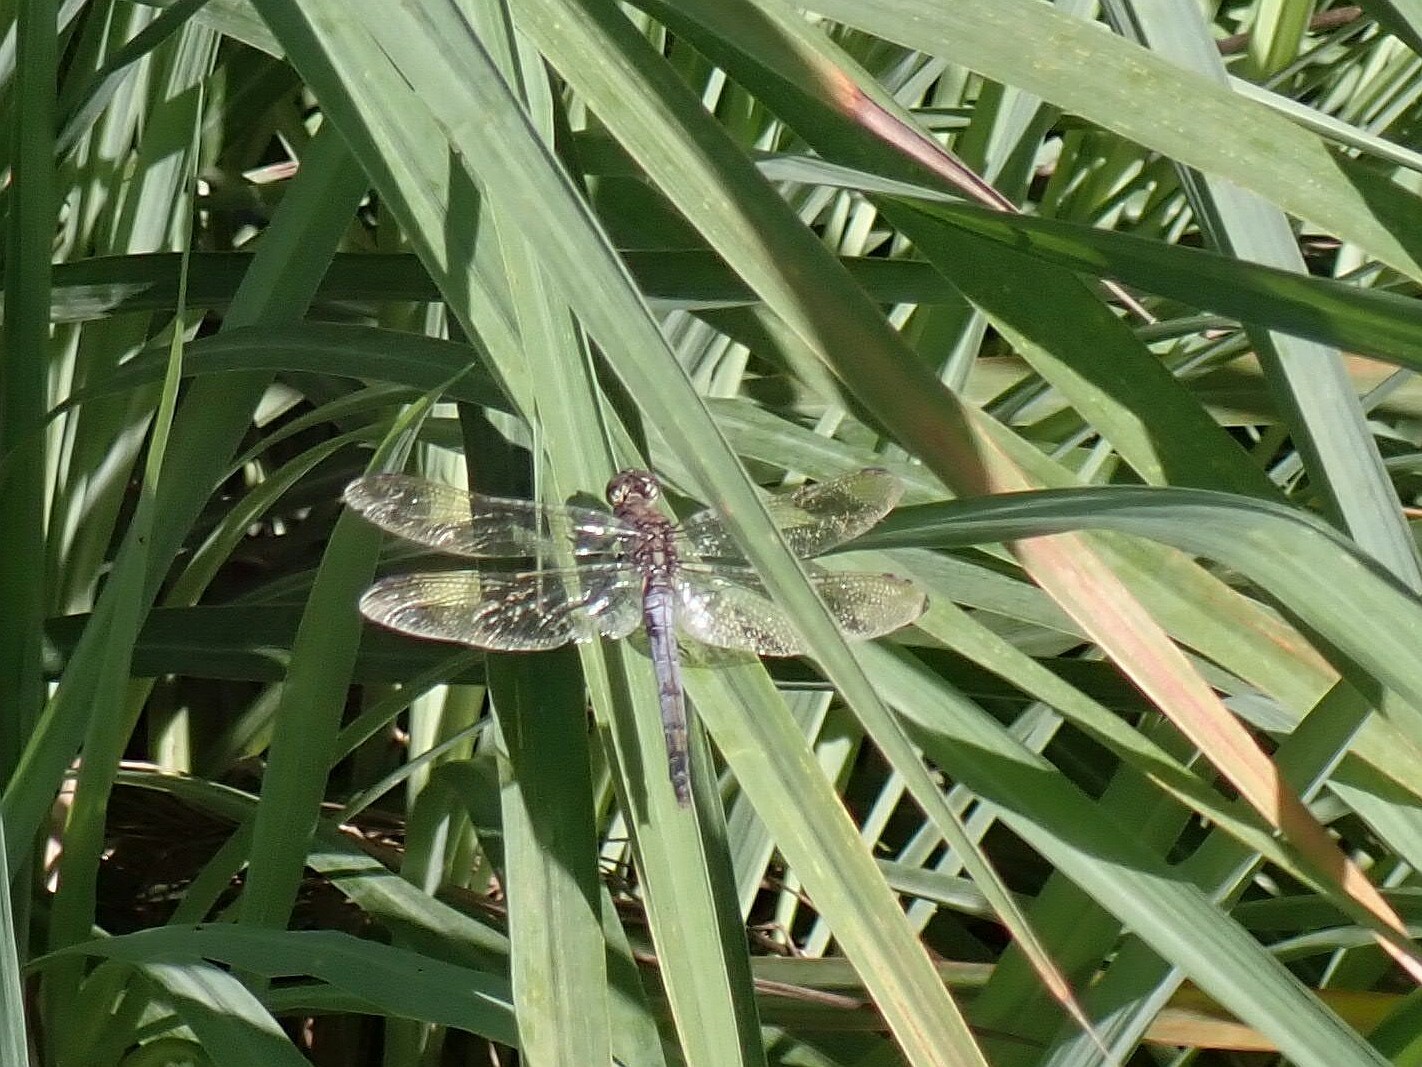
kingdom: Animalia
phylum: Arthropoda
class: Insecta
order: Odonata
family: Libellulidae
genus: Orthetrum
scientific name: Orthetrum caledonicum
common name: Blue skimmer
